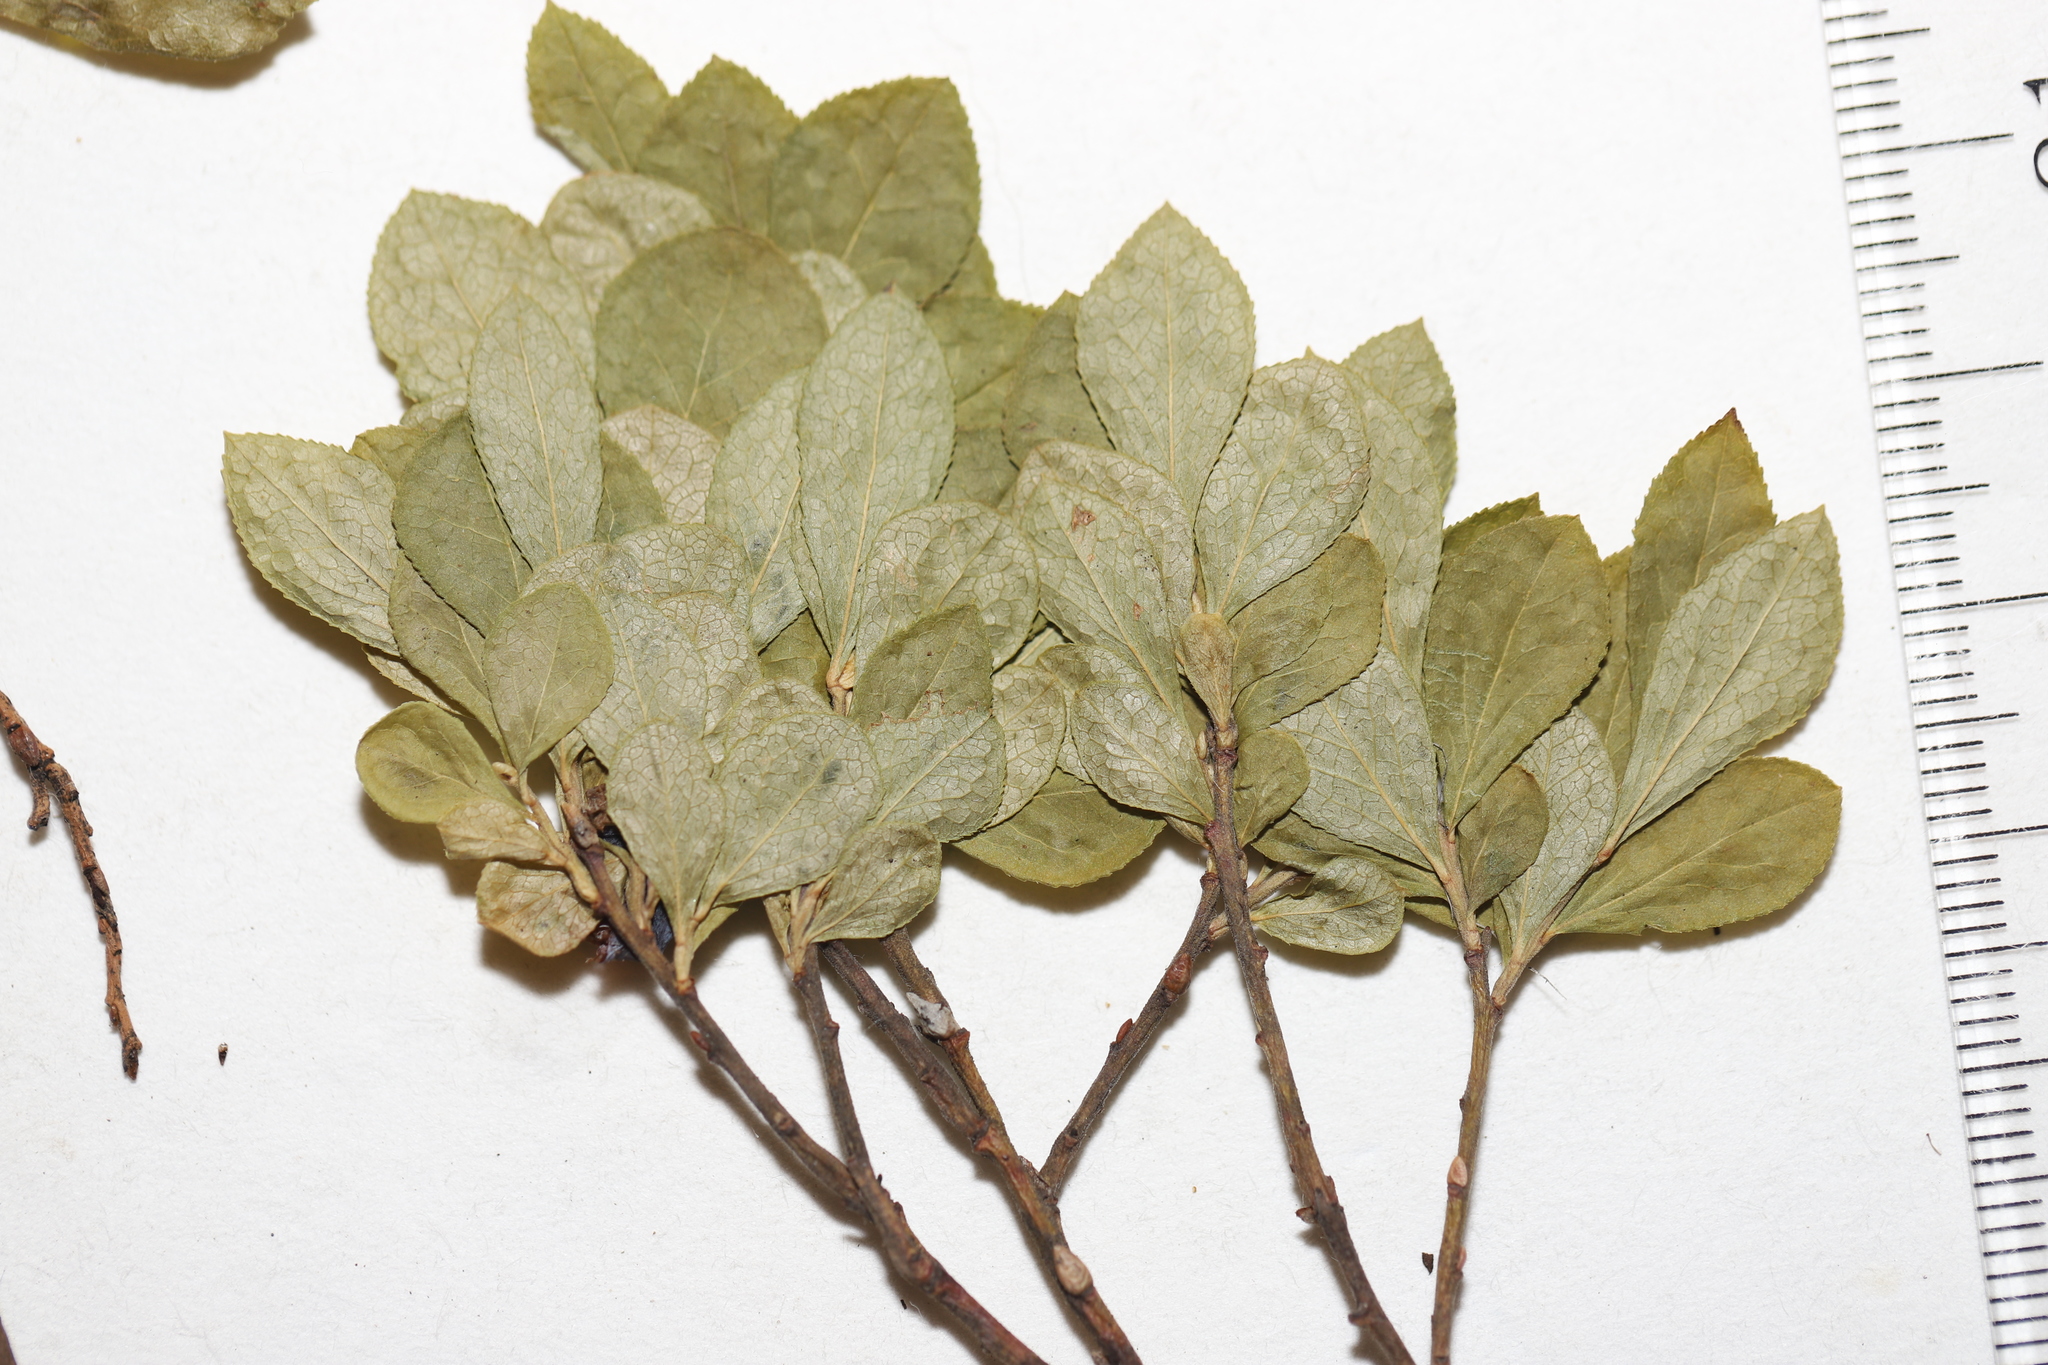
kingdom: Plantae
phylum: Tracheophyta
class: Magnoliopsida
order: Ericales
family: Ericaceae
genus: Vaccinium
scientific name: Vaccinium cespitosum
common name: Dwarf bilberry
